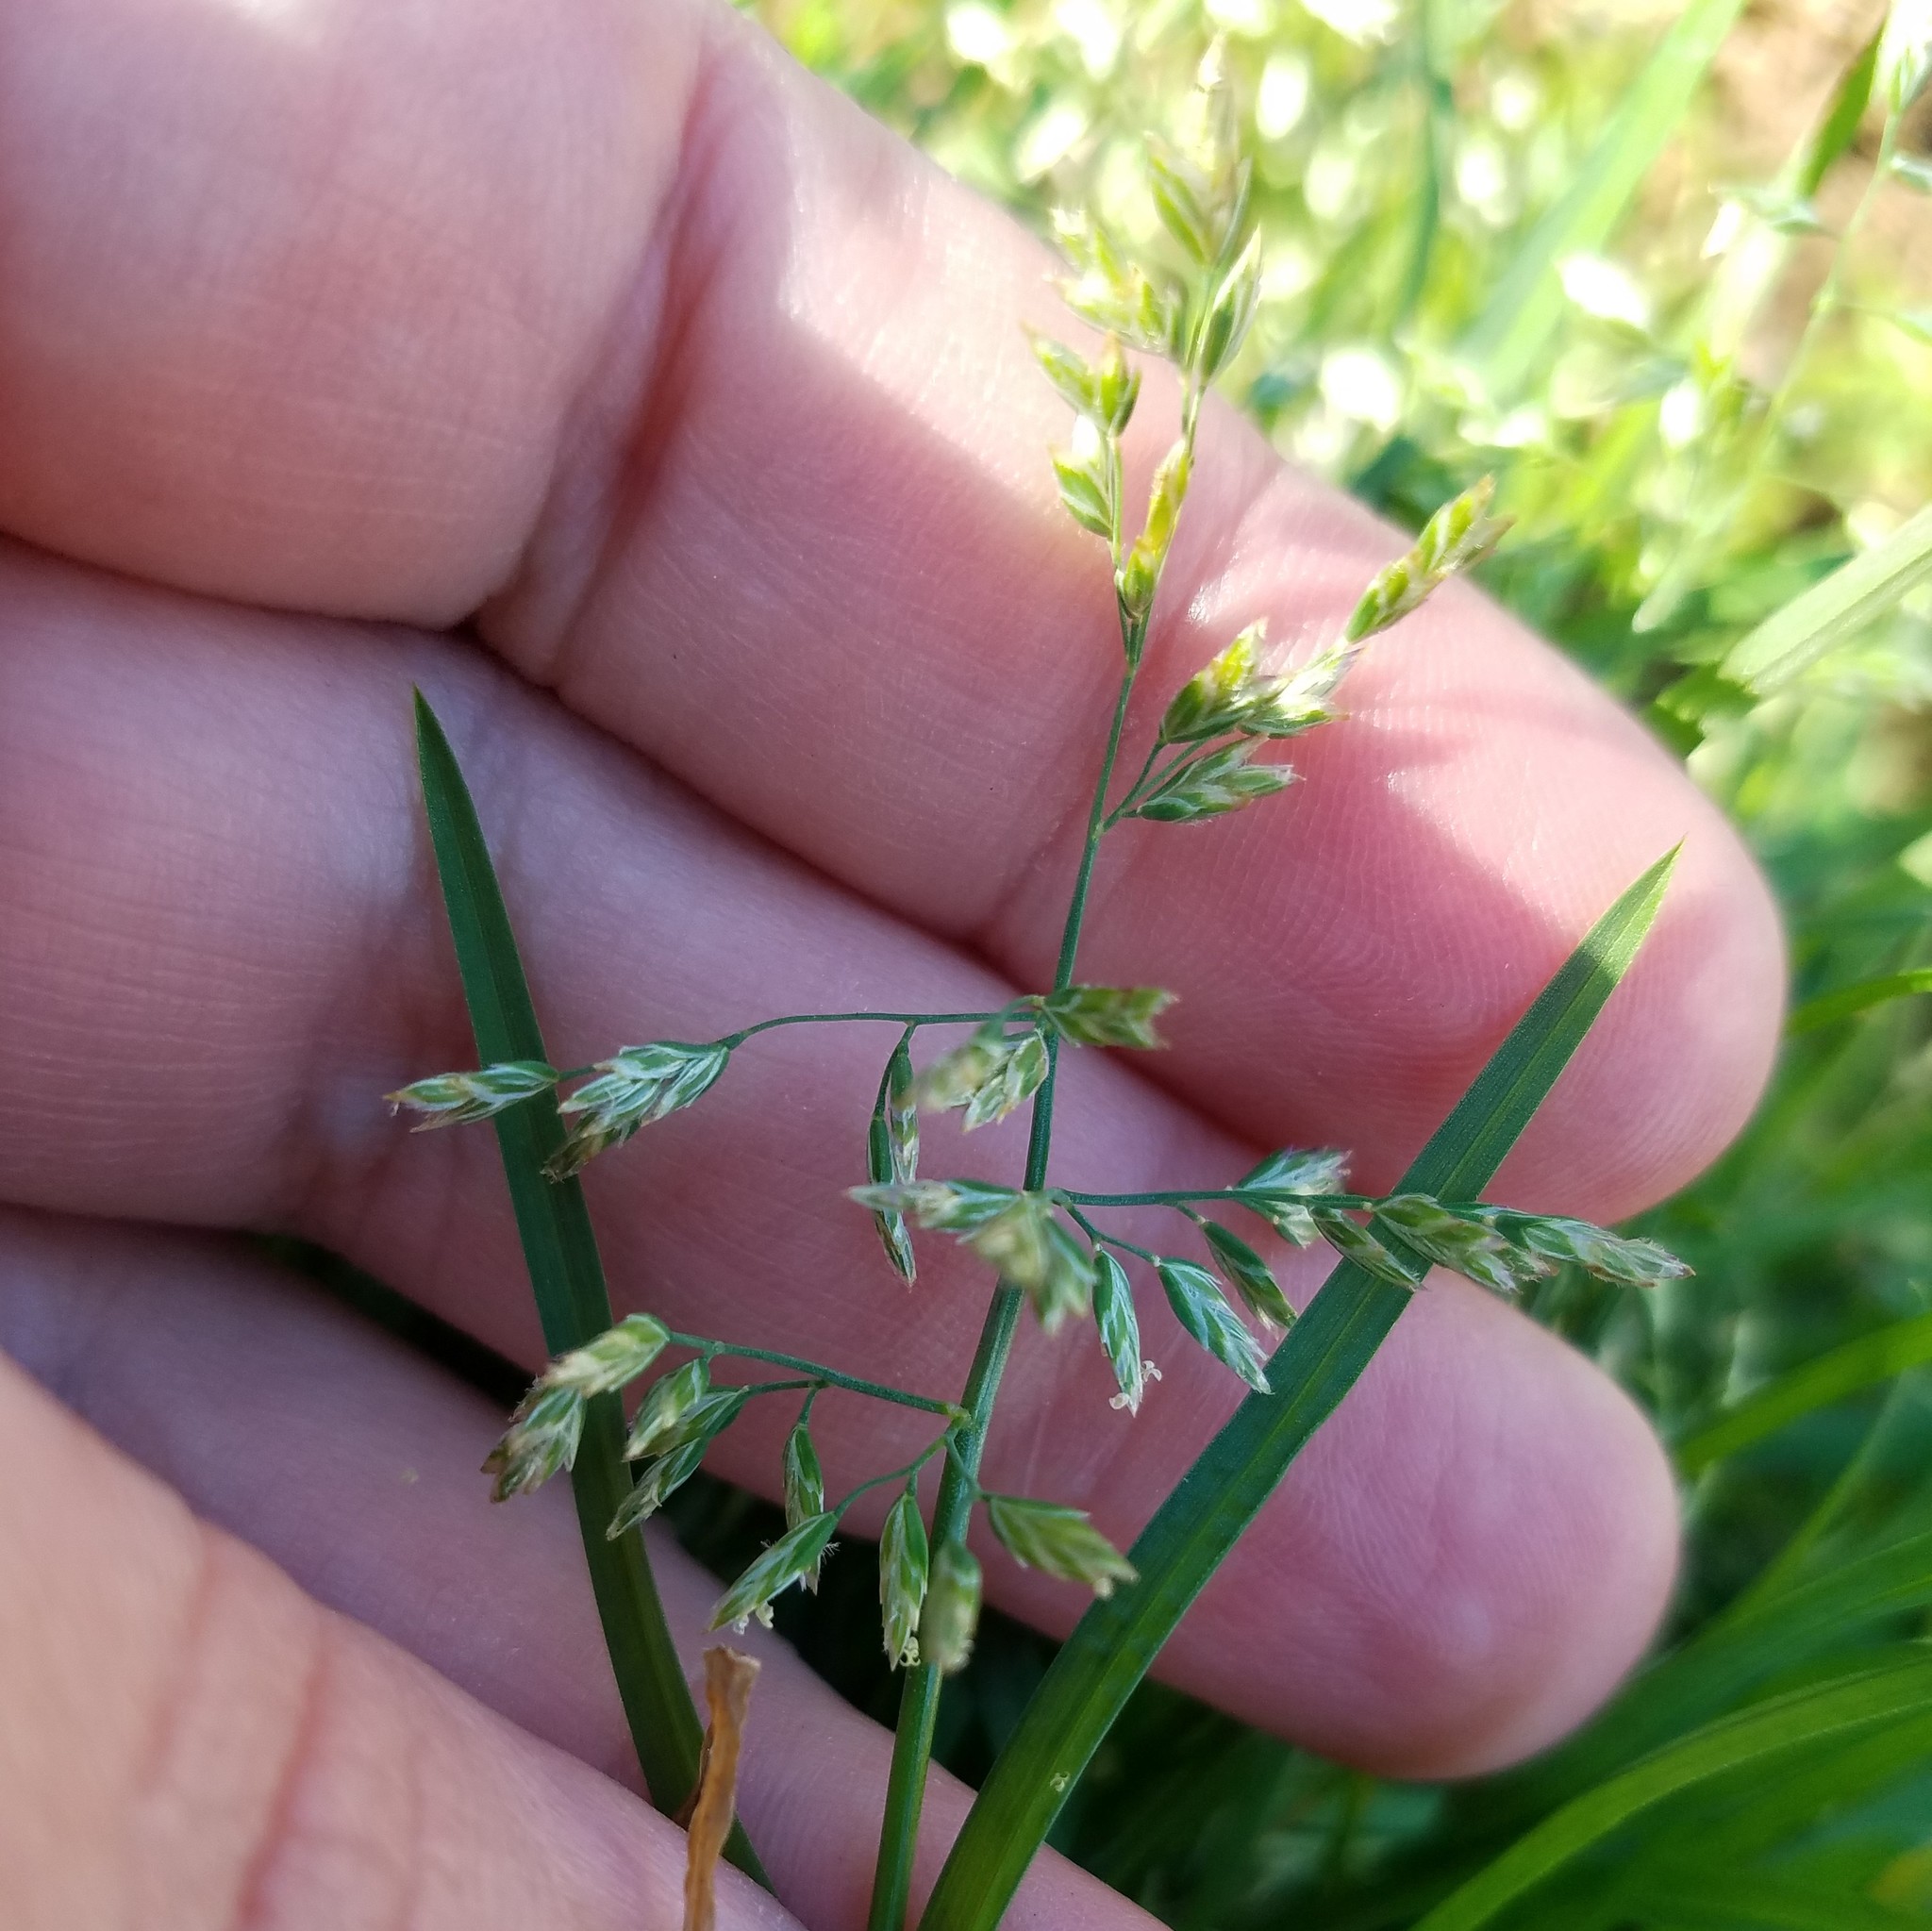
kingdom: Plantae
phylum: Tracheophyta
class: Liliopsida
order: Poales
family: Poaceae
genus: Poa
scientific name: Poa annua
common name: Annual bluegrass
